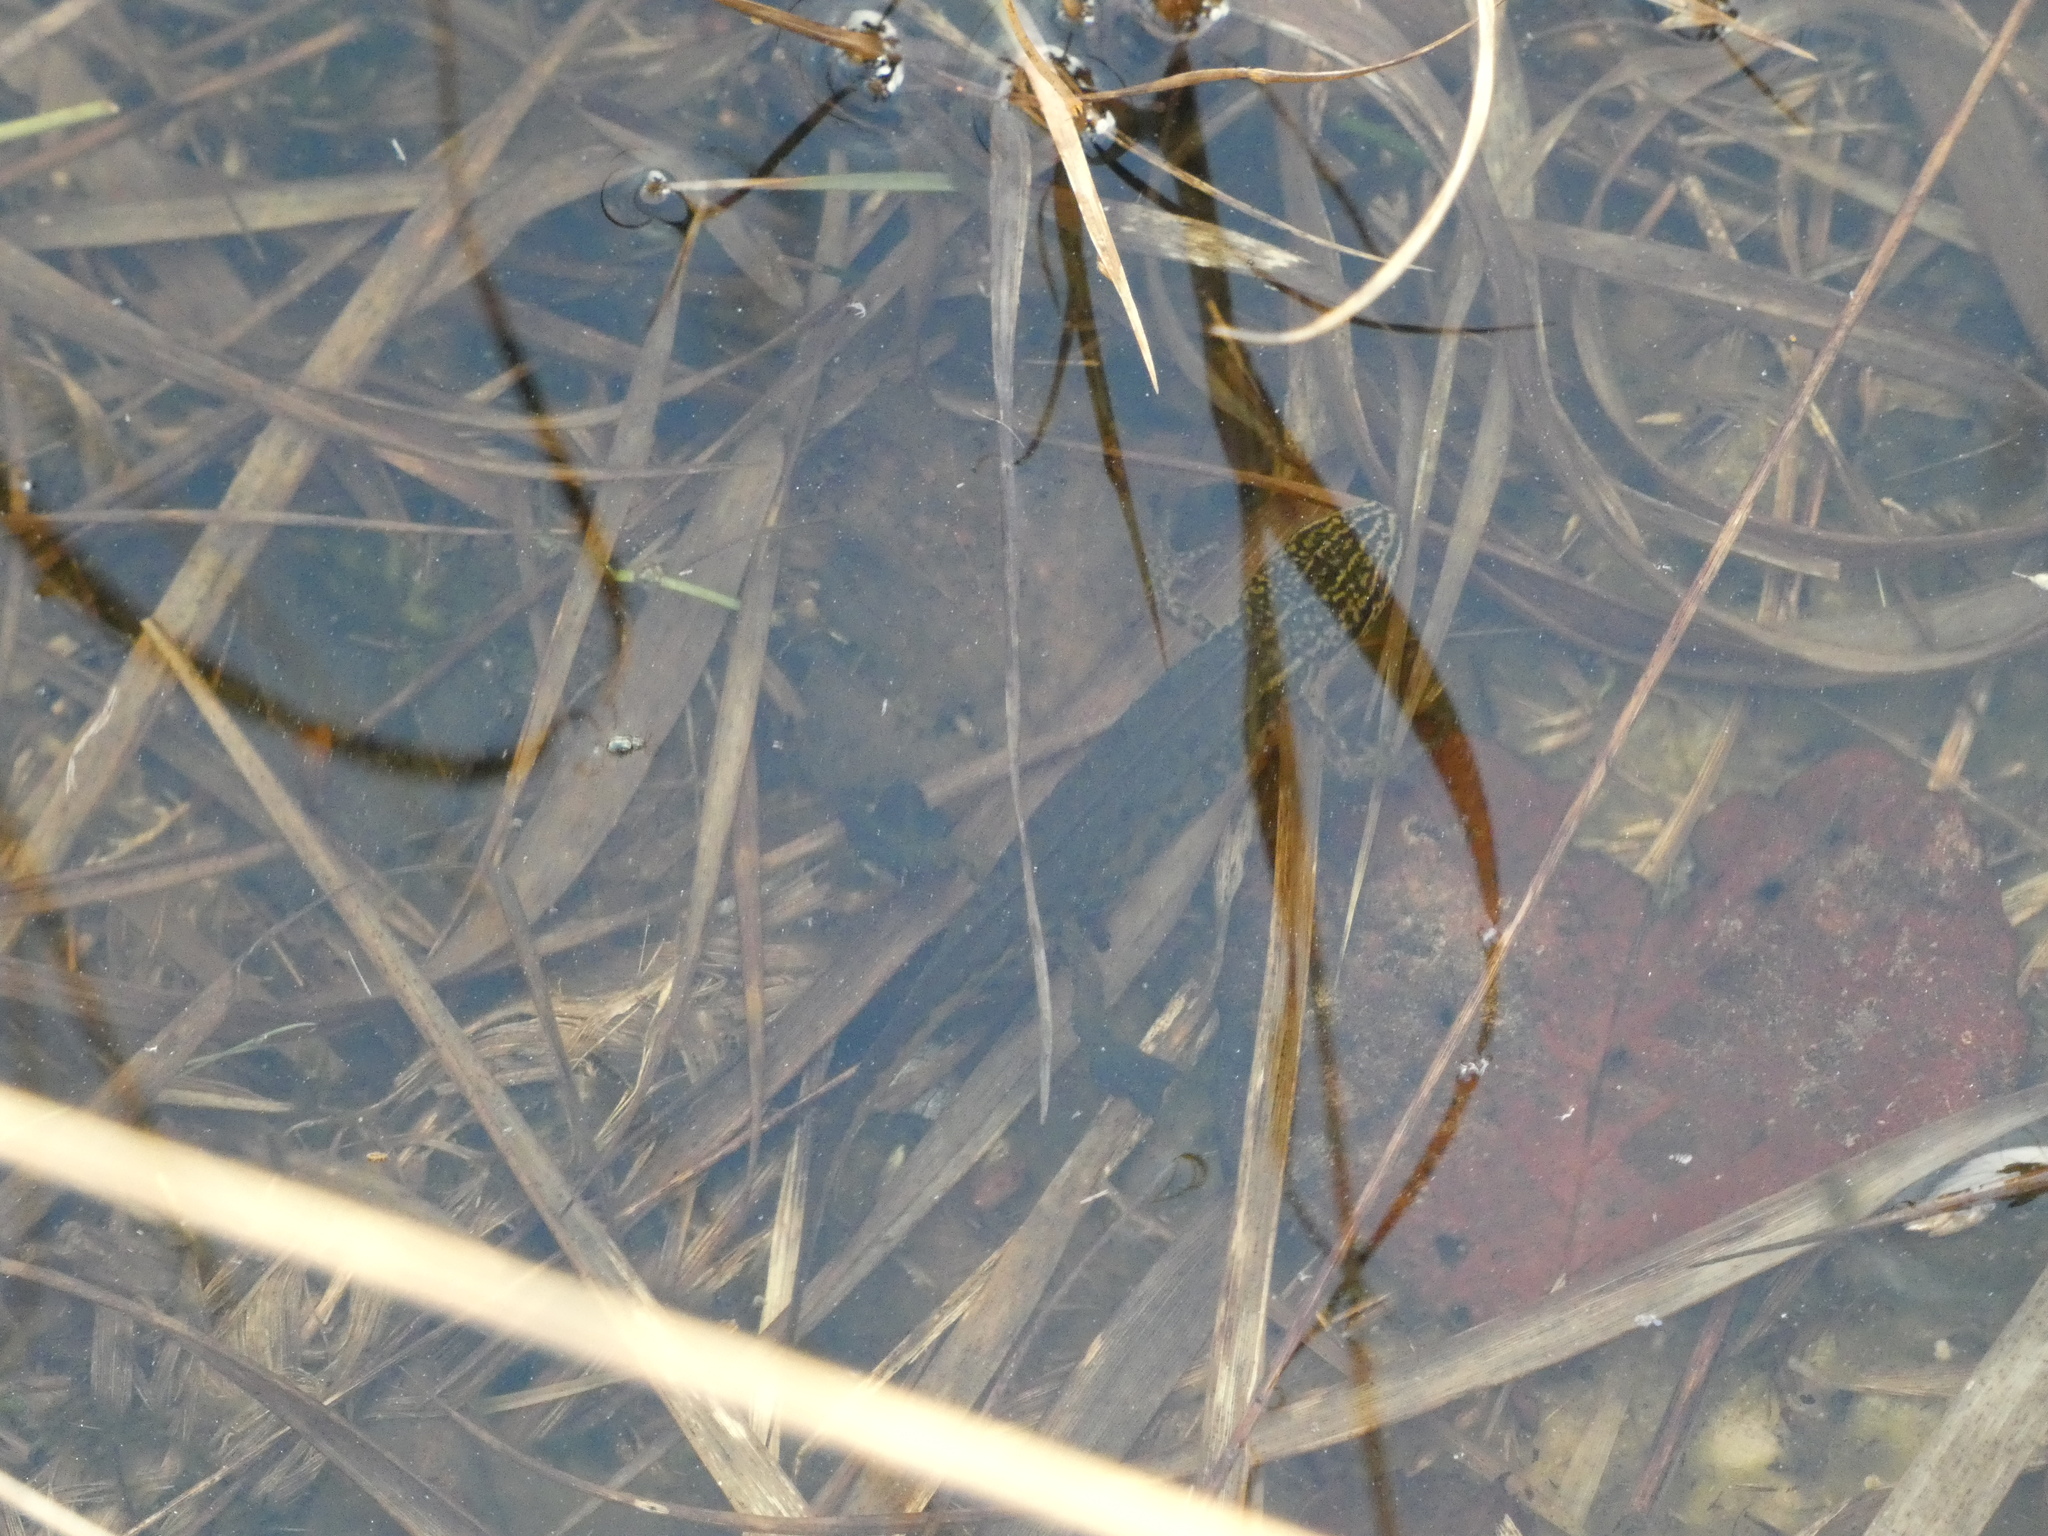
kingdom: Animalia
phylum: Chordata
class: Amphibia
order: Caudata
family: Salamandridae
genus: Lissotriton
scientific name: Lissotriton helveticus
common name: Palmate newt
